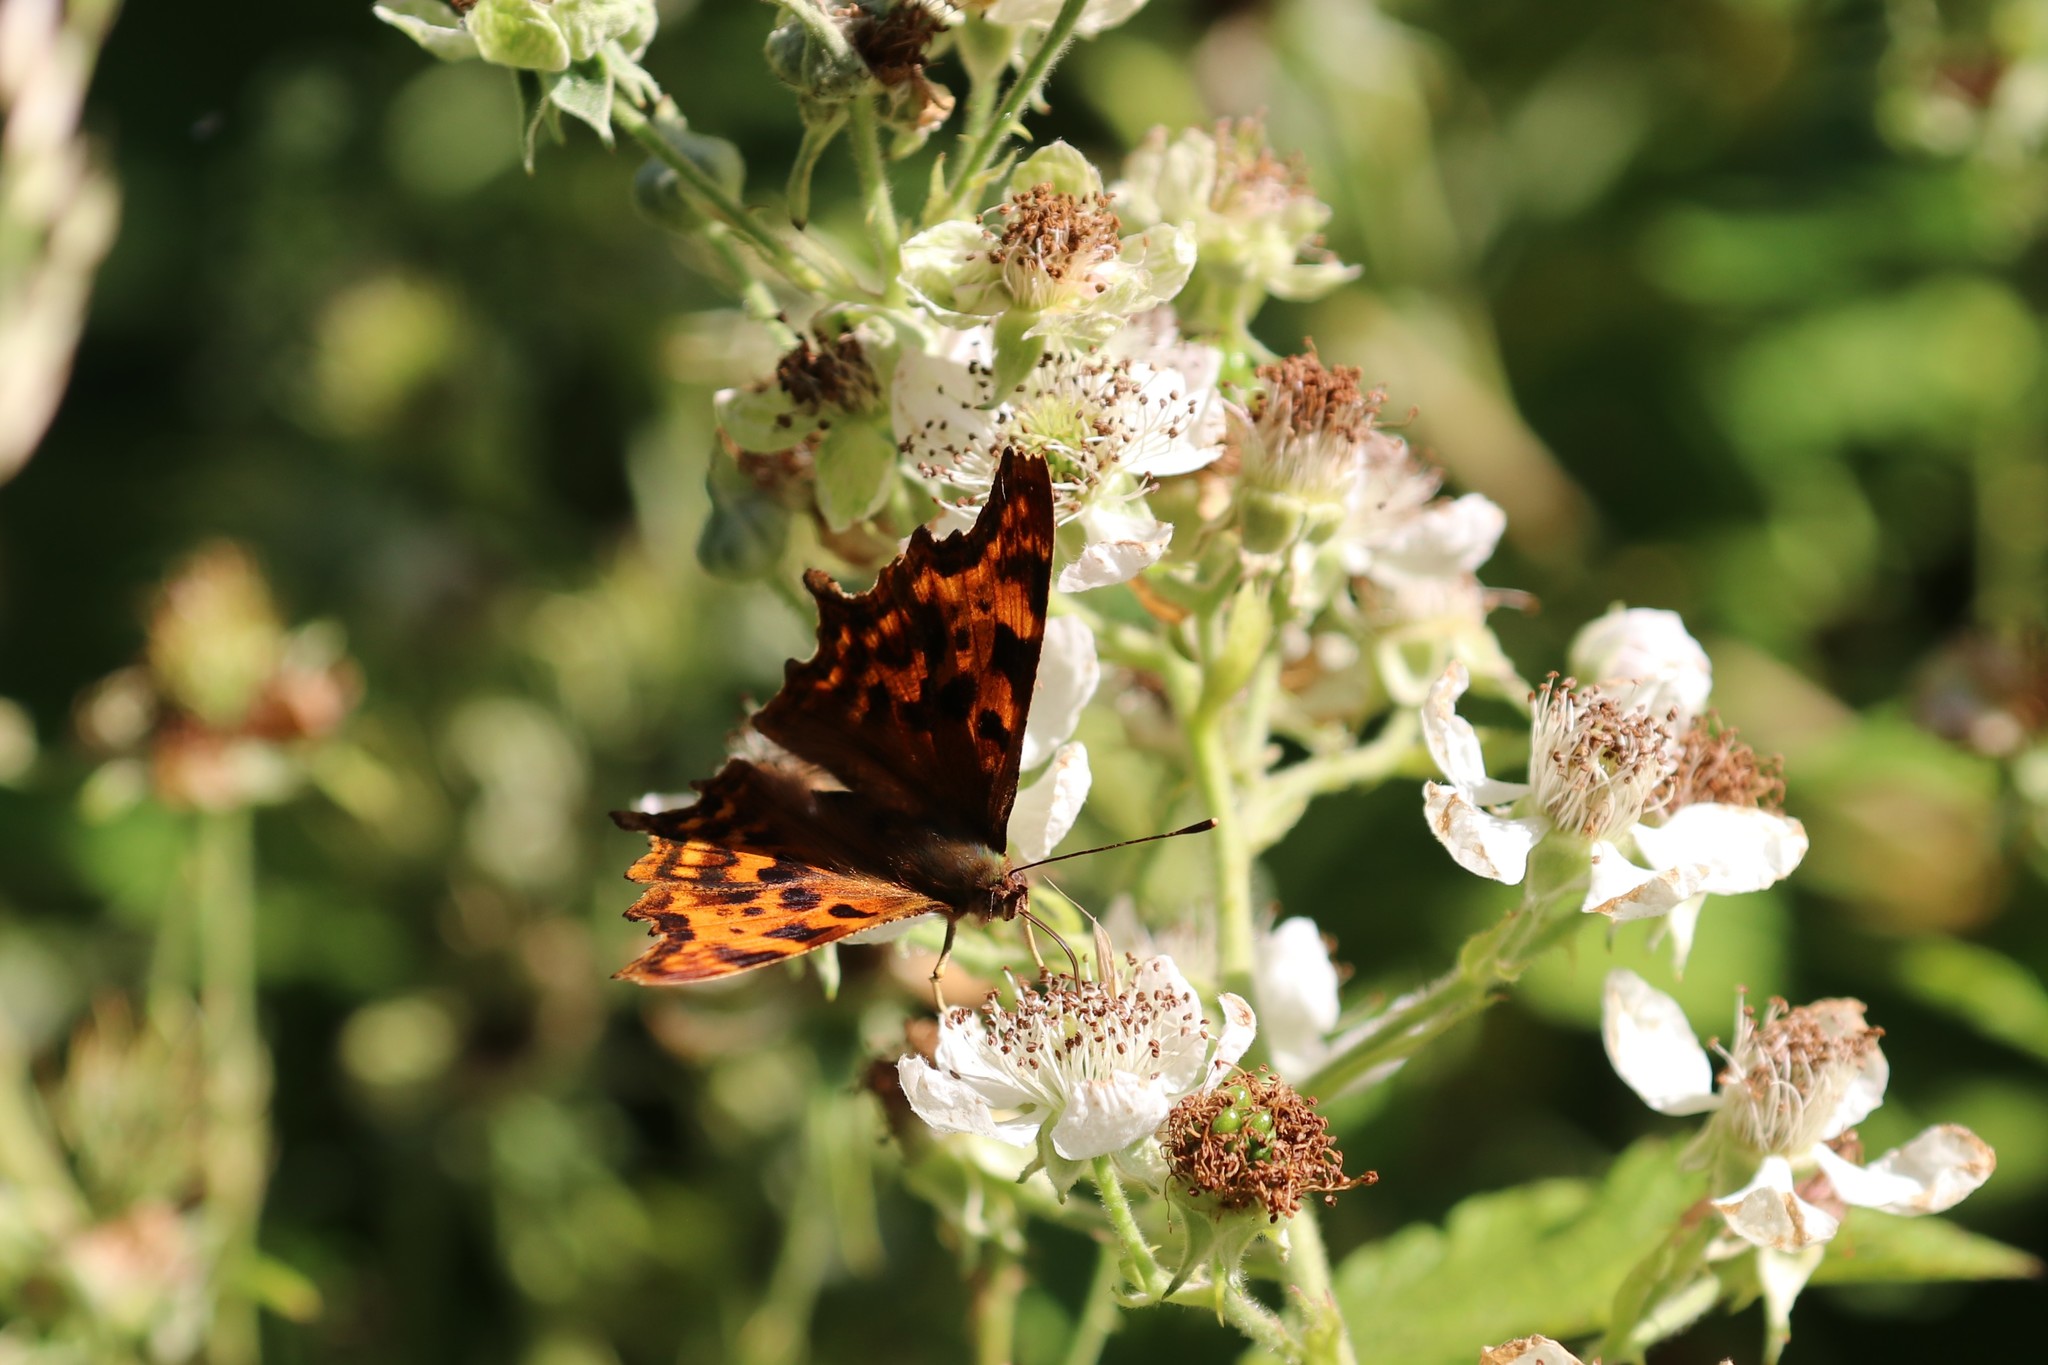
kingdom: Animalia
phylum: Arthropoda
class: Insecta
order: Lepidoptera
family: Nymphalidae
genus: Polygonia
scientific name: Polygonia c-album
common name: Comma
